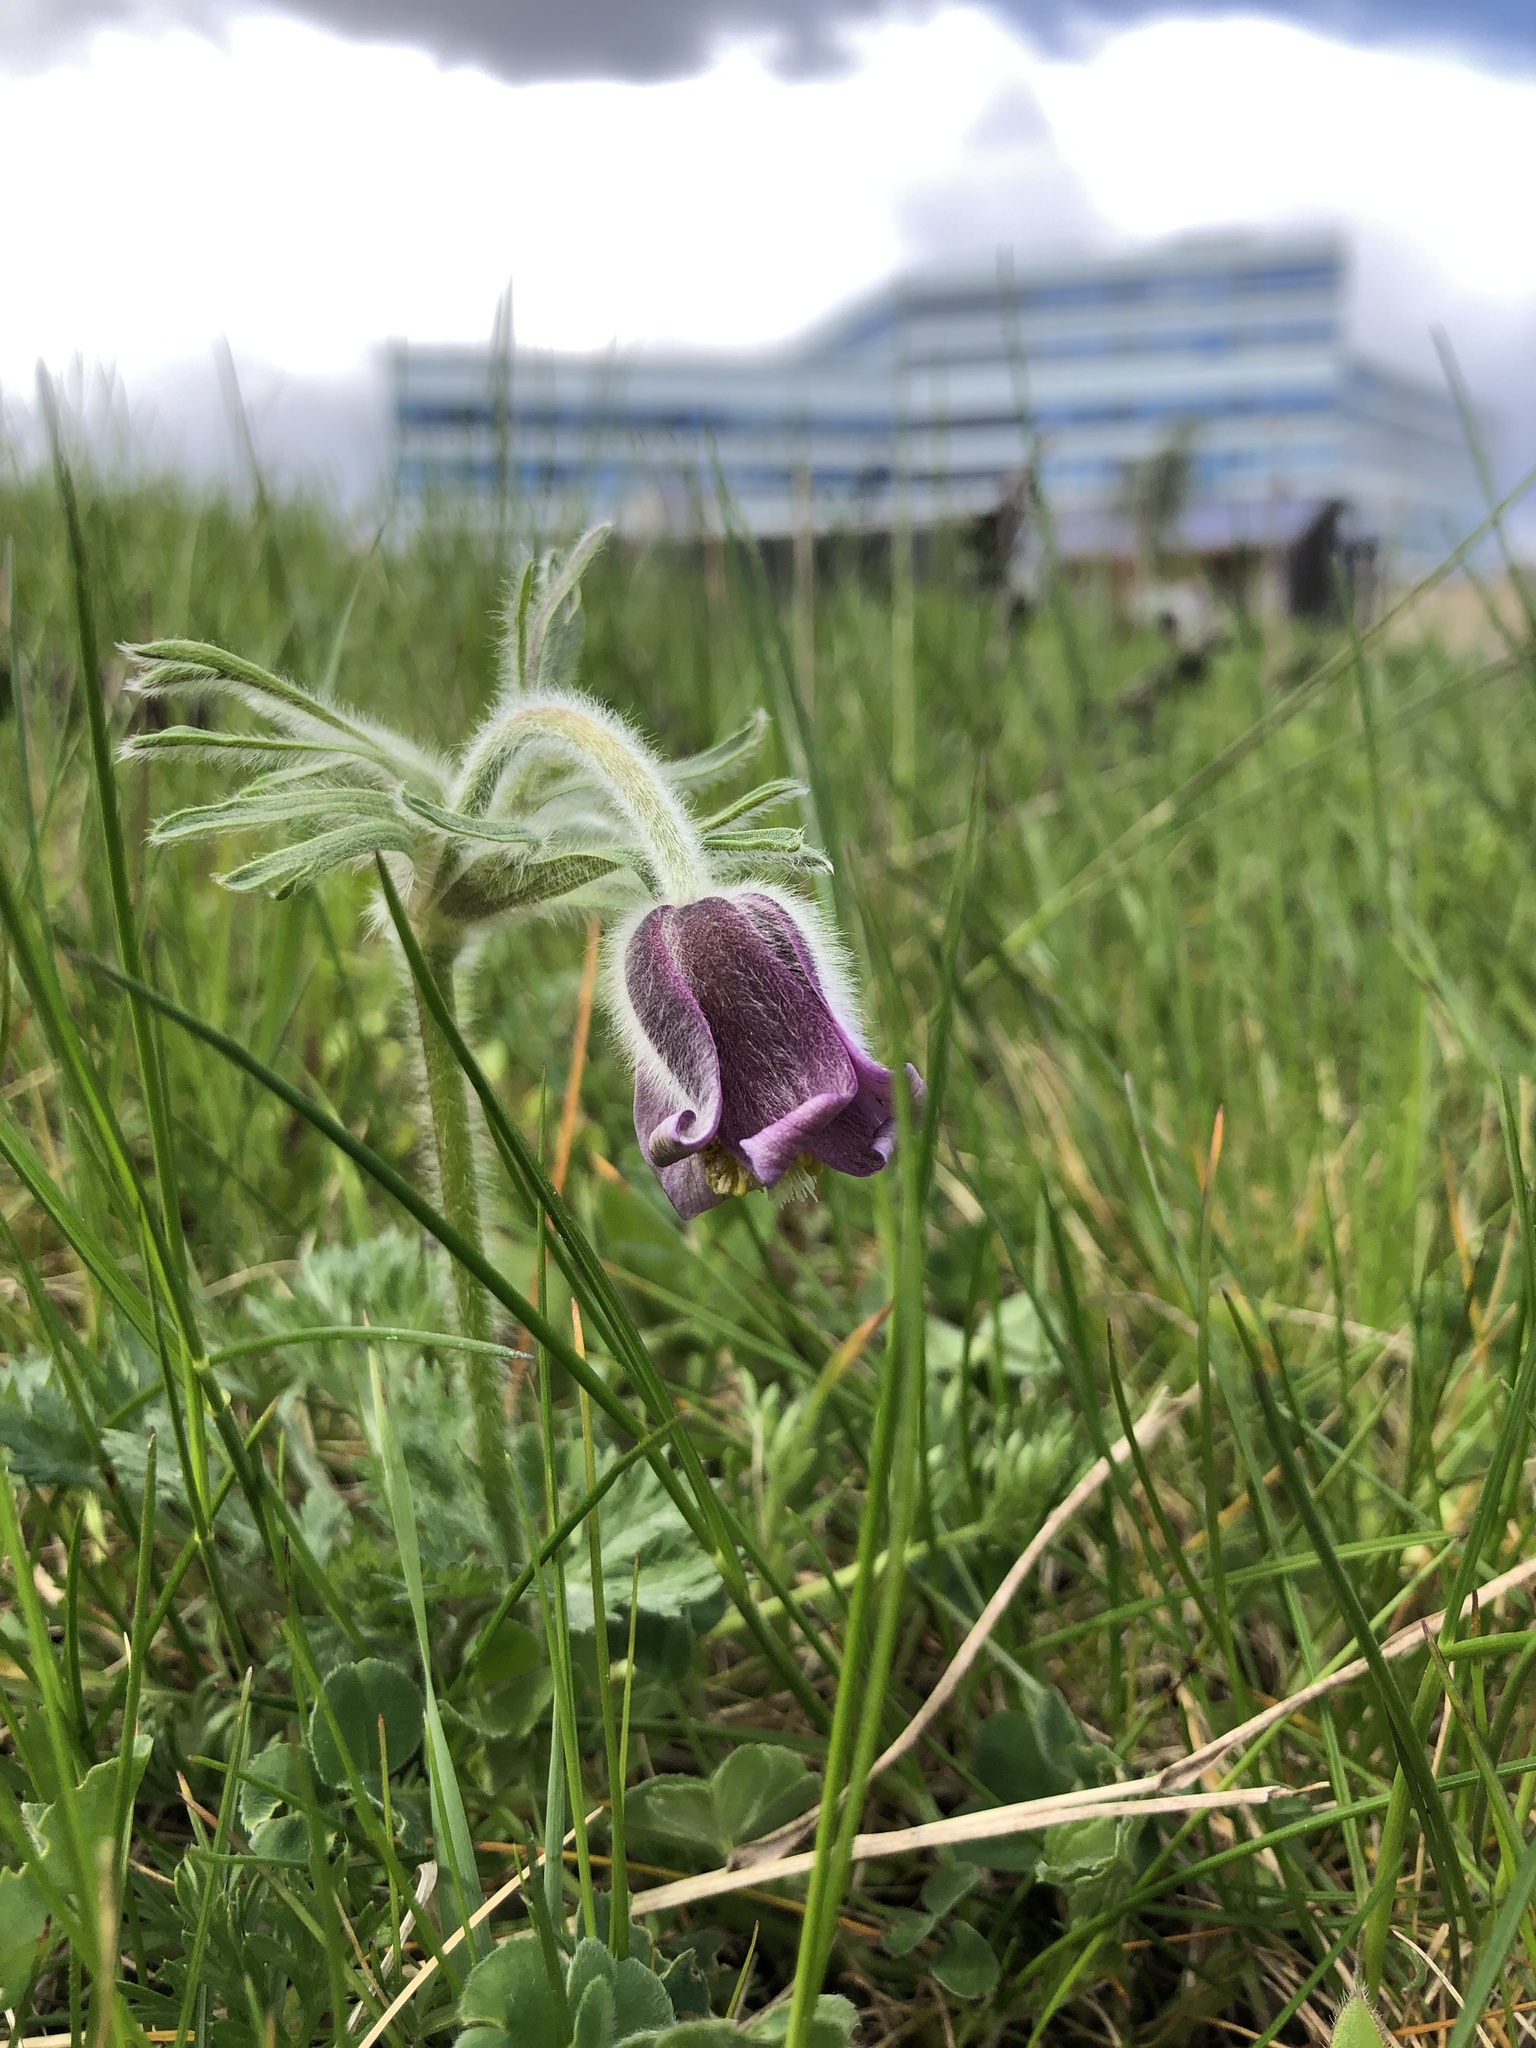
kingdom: Plantae
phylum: Tracheophyta
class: Magnoliopsida
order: Ranunculales
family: Ranunculaceae
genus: Pulsatilla
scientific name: Pulsatilla pratensis
